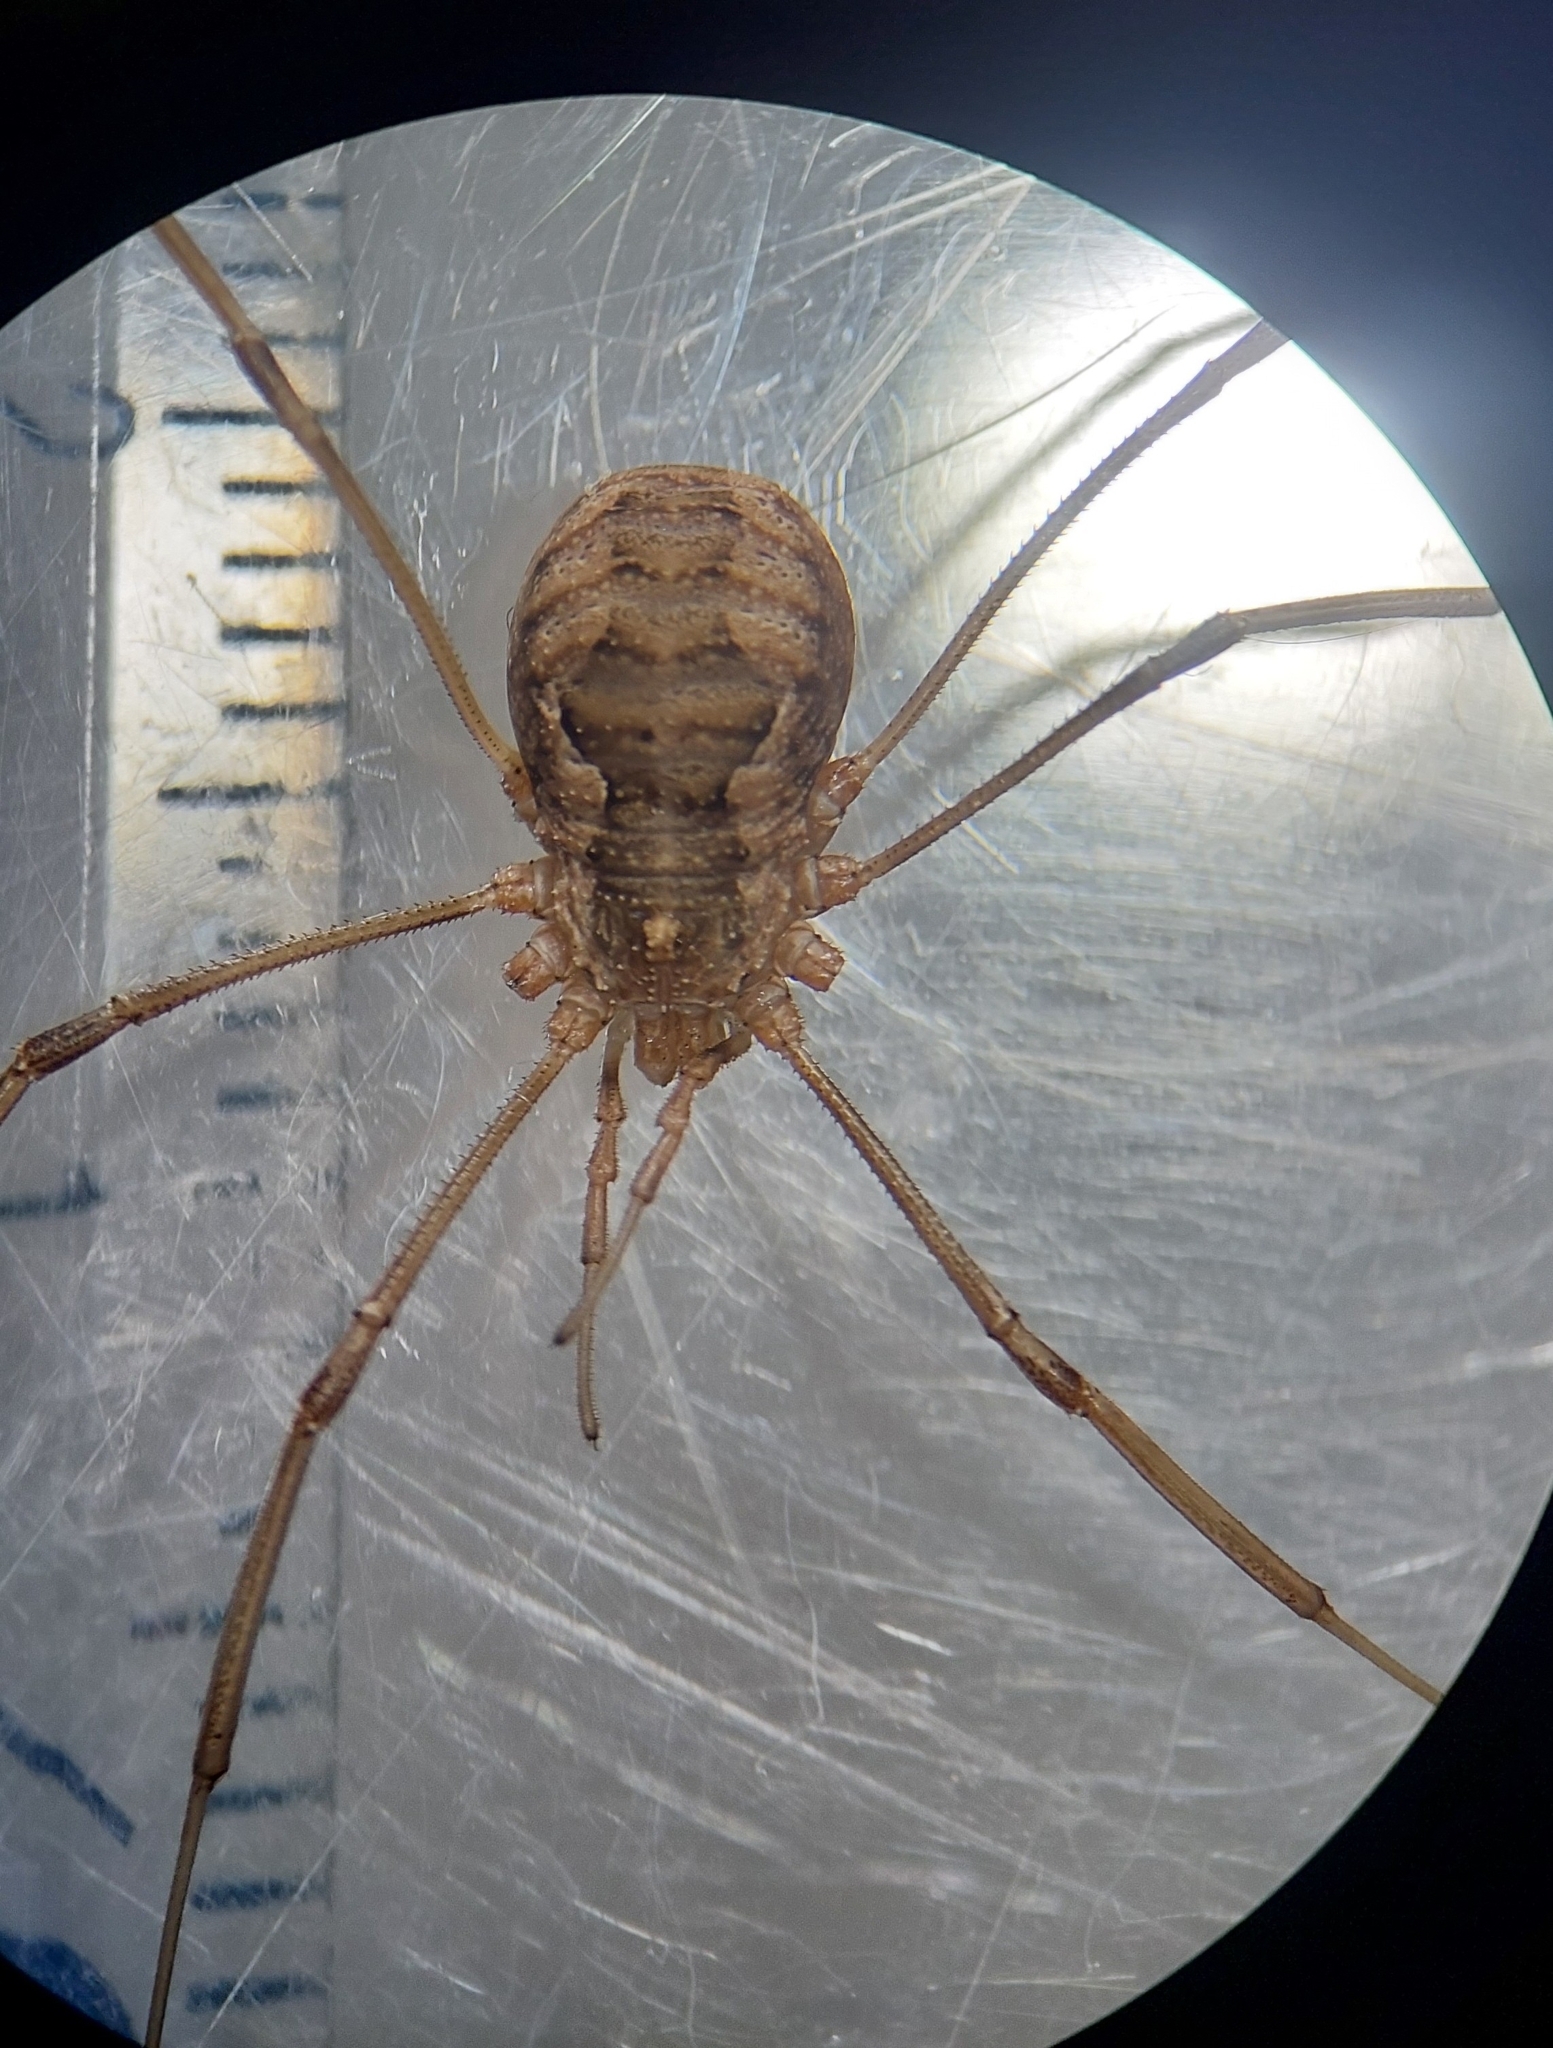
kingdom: Animalia
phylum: Arthropoda
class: Arachnida
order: Opiliones
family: Phalangiidae
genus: Phalangium
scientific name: Phalangium opilio
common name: Daddy longleg
